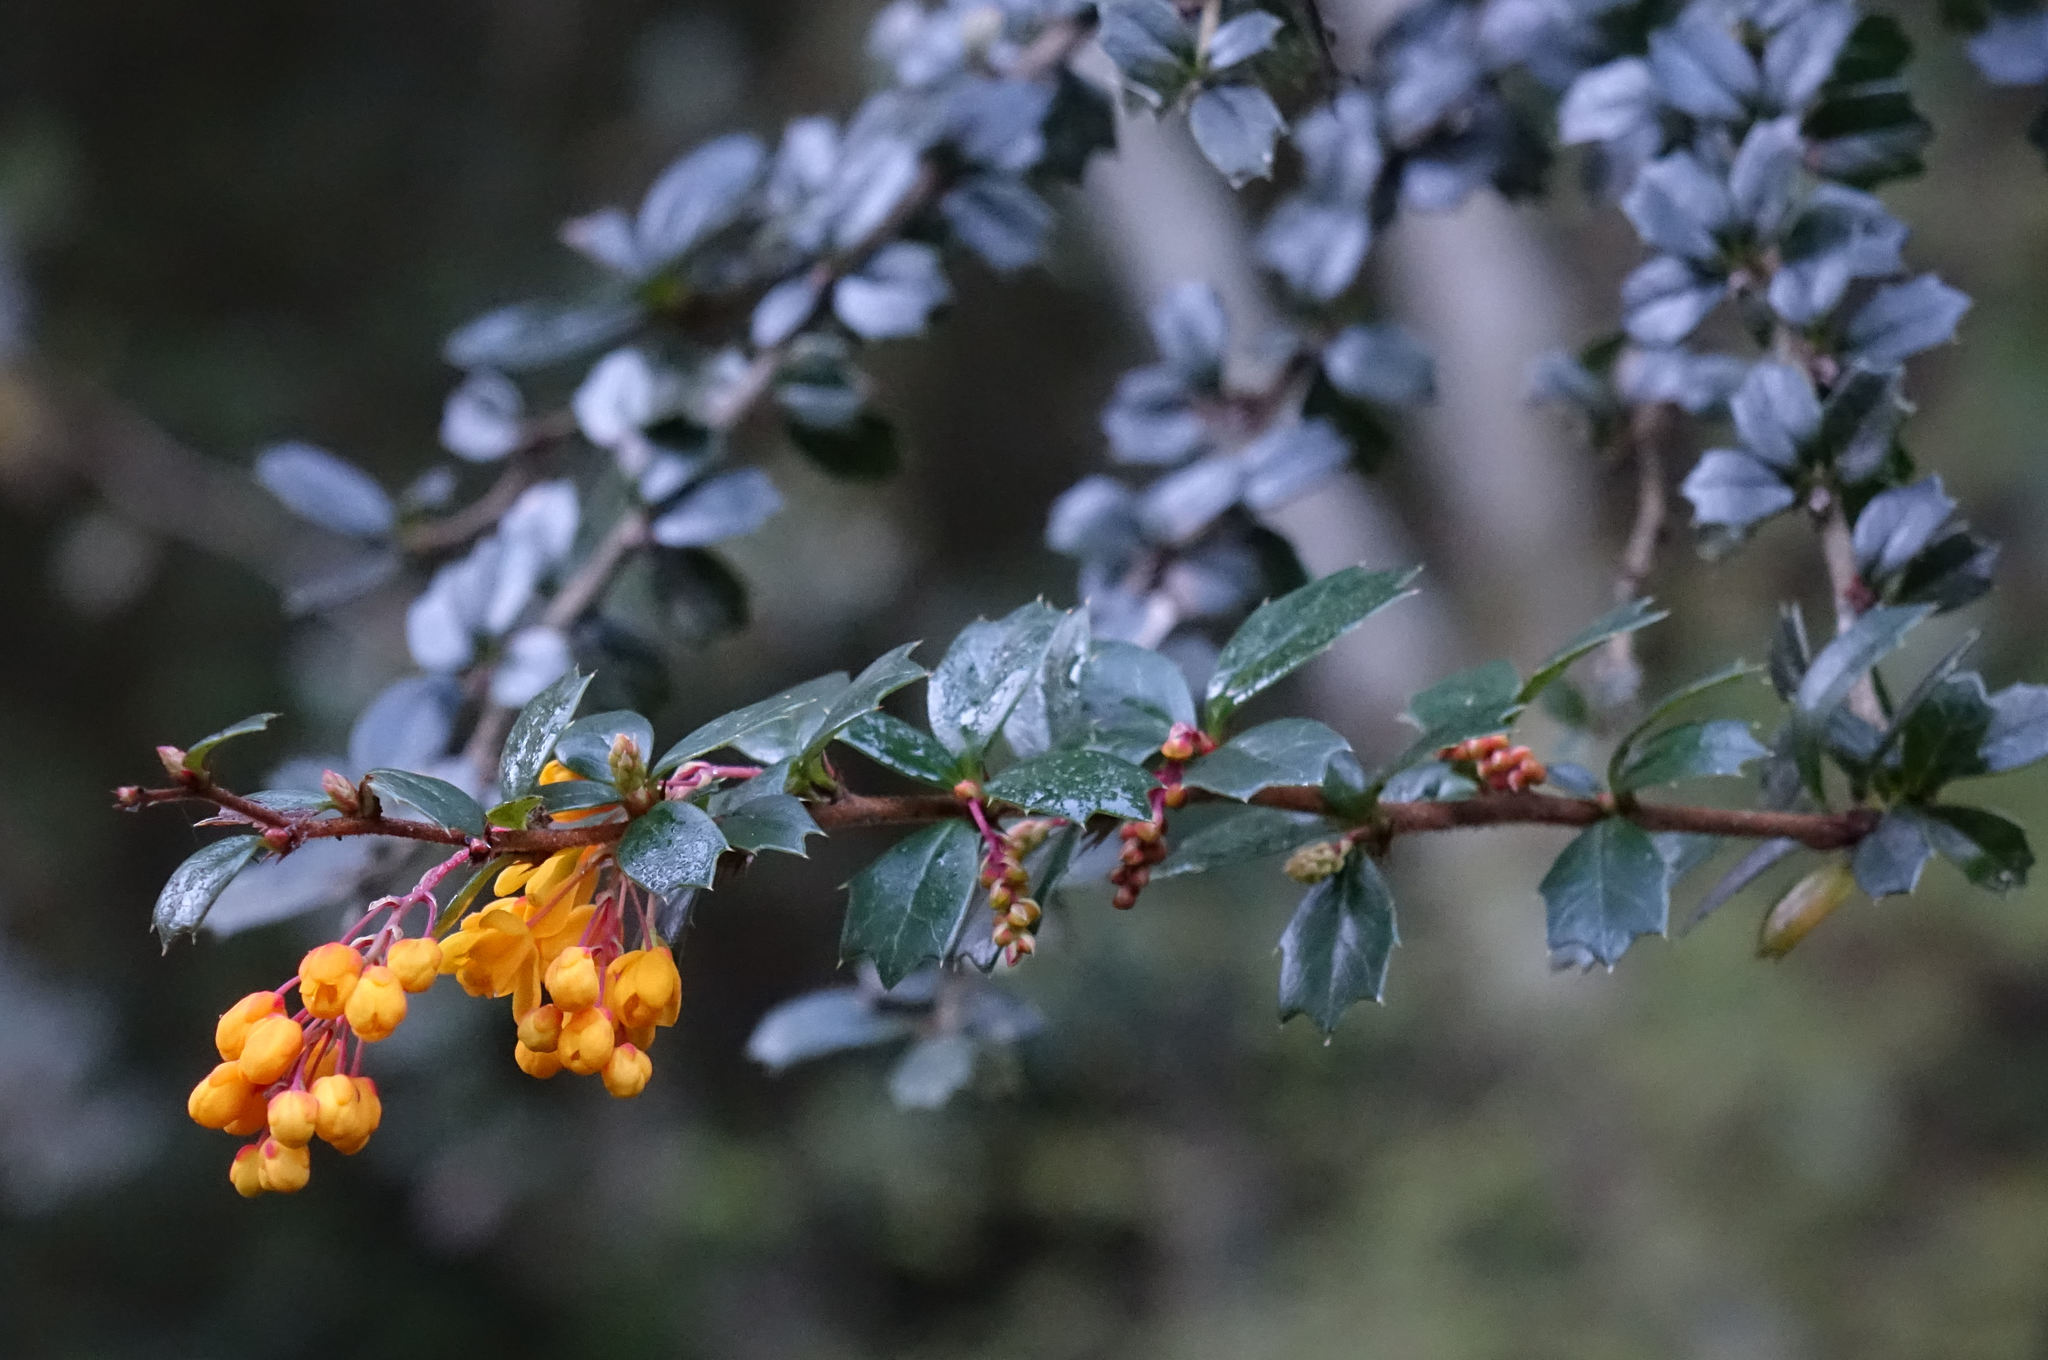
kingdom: Plantae
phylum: Tracheophyta
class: Magnoliopsida
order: Ranunculales
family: Berberidaceae
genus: Berberis
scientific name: Berberis darwinii
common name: Darwin's barberry
